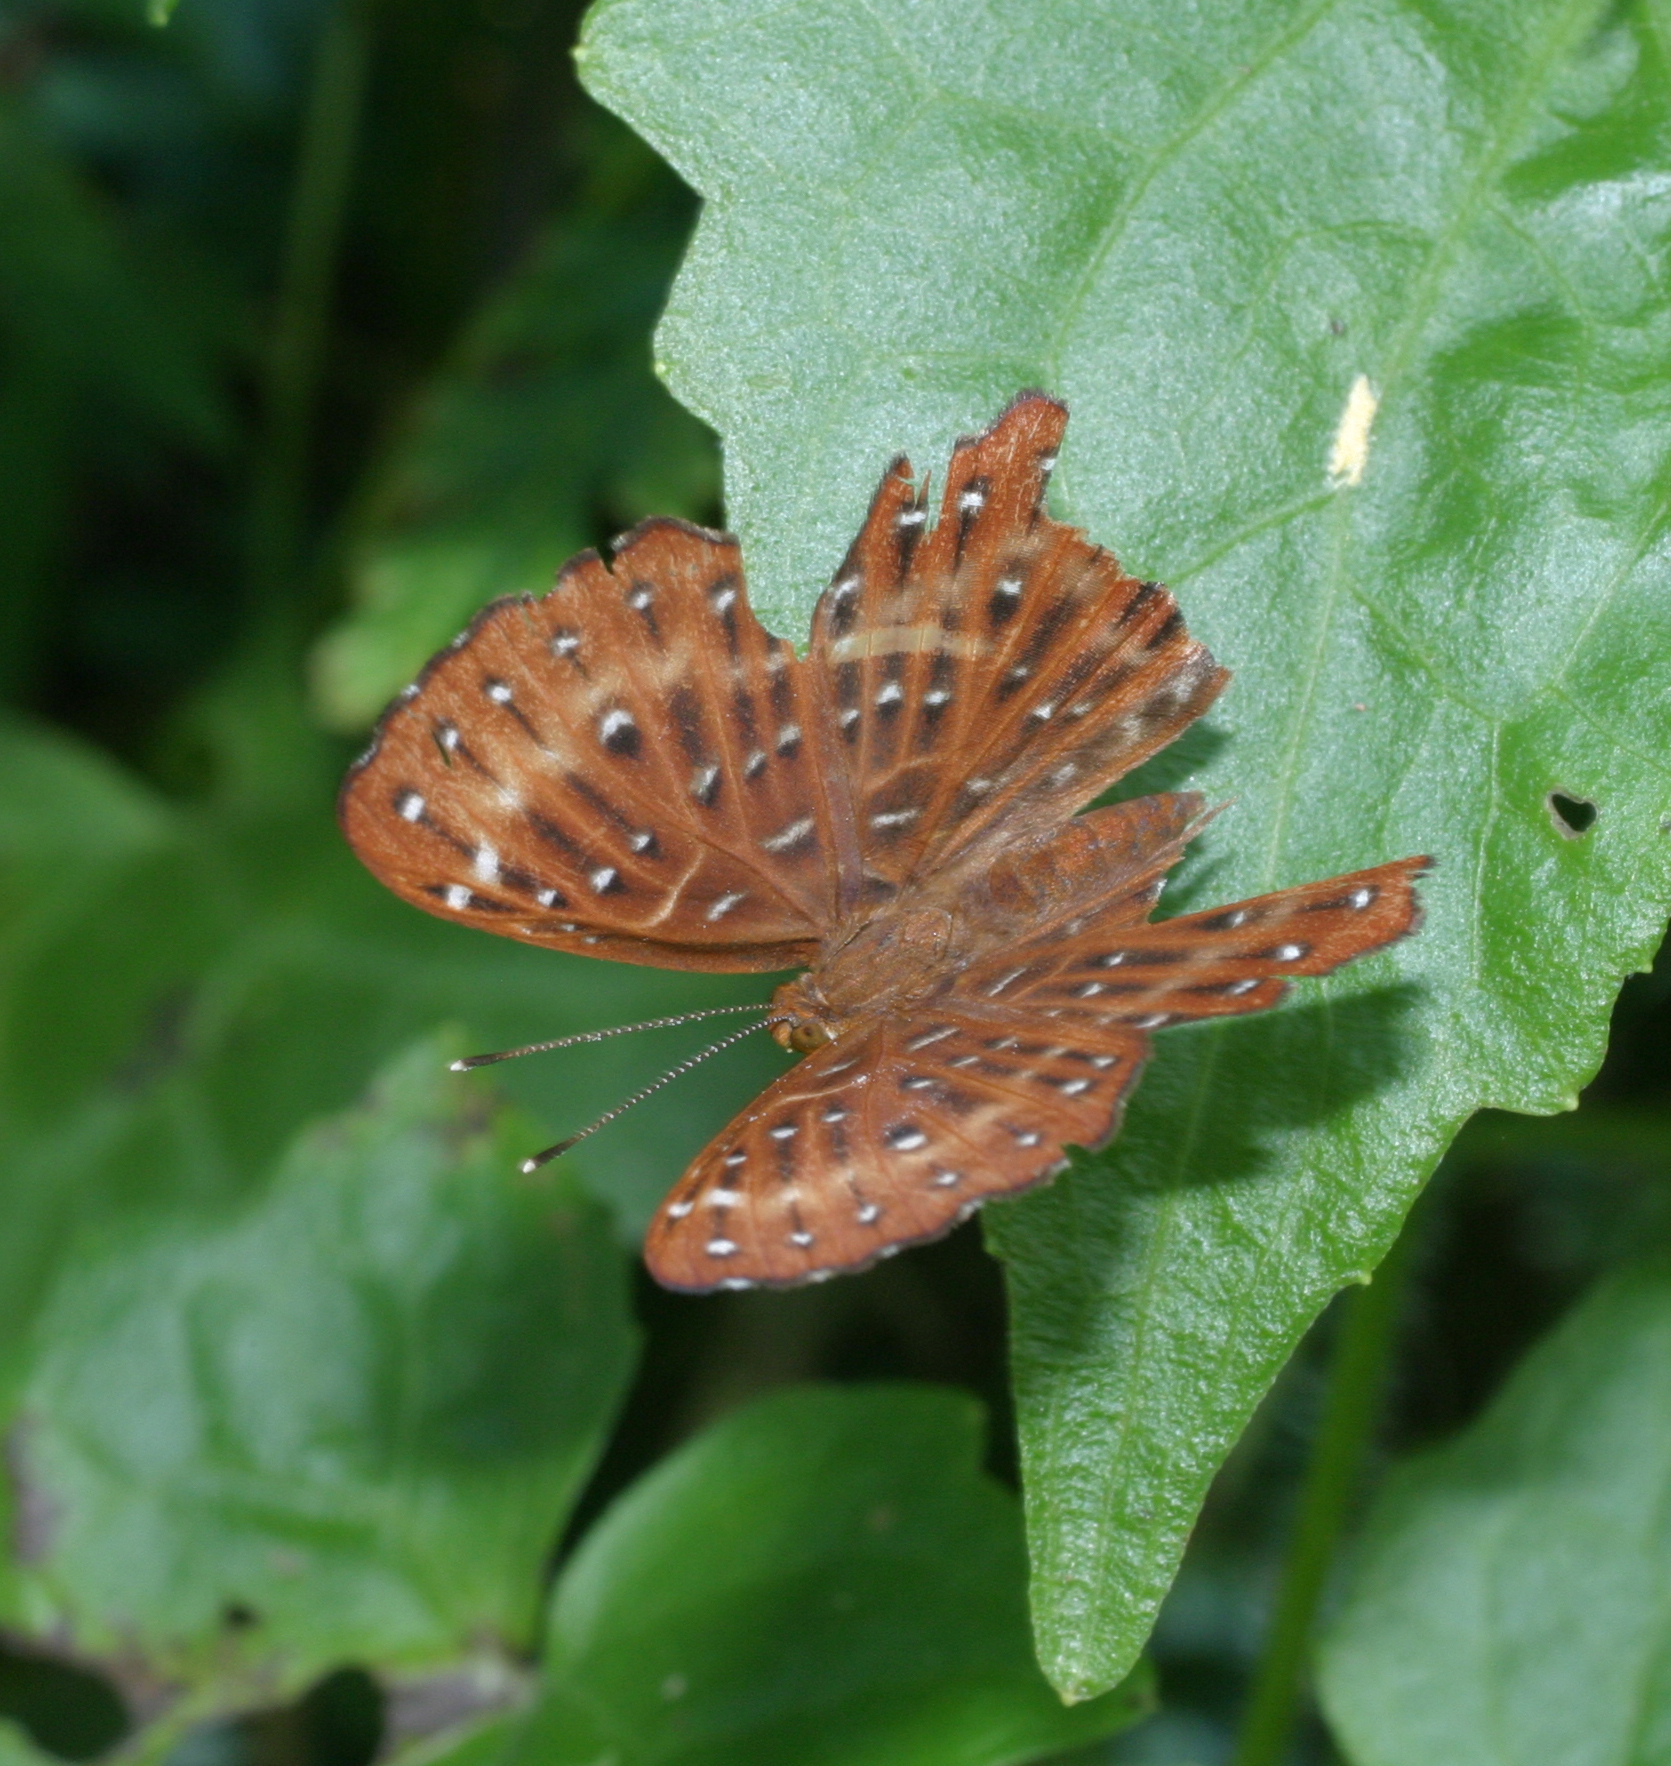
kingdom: Animalia
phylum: Arthropoda
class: Insecta
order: Lepidoptera
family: Riodinidae
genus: Zemeros
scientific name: Zemeros flegyas
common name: Punchinello
